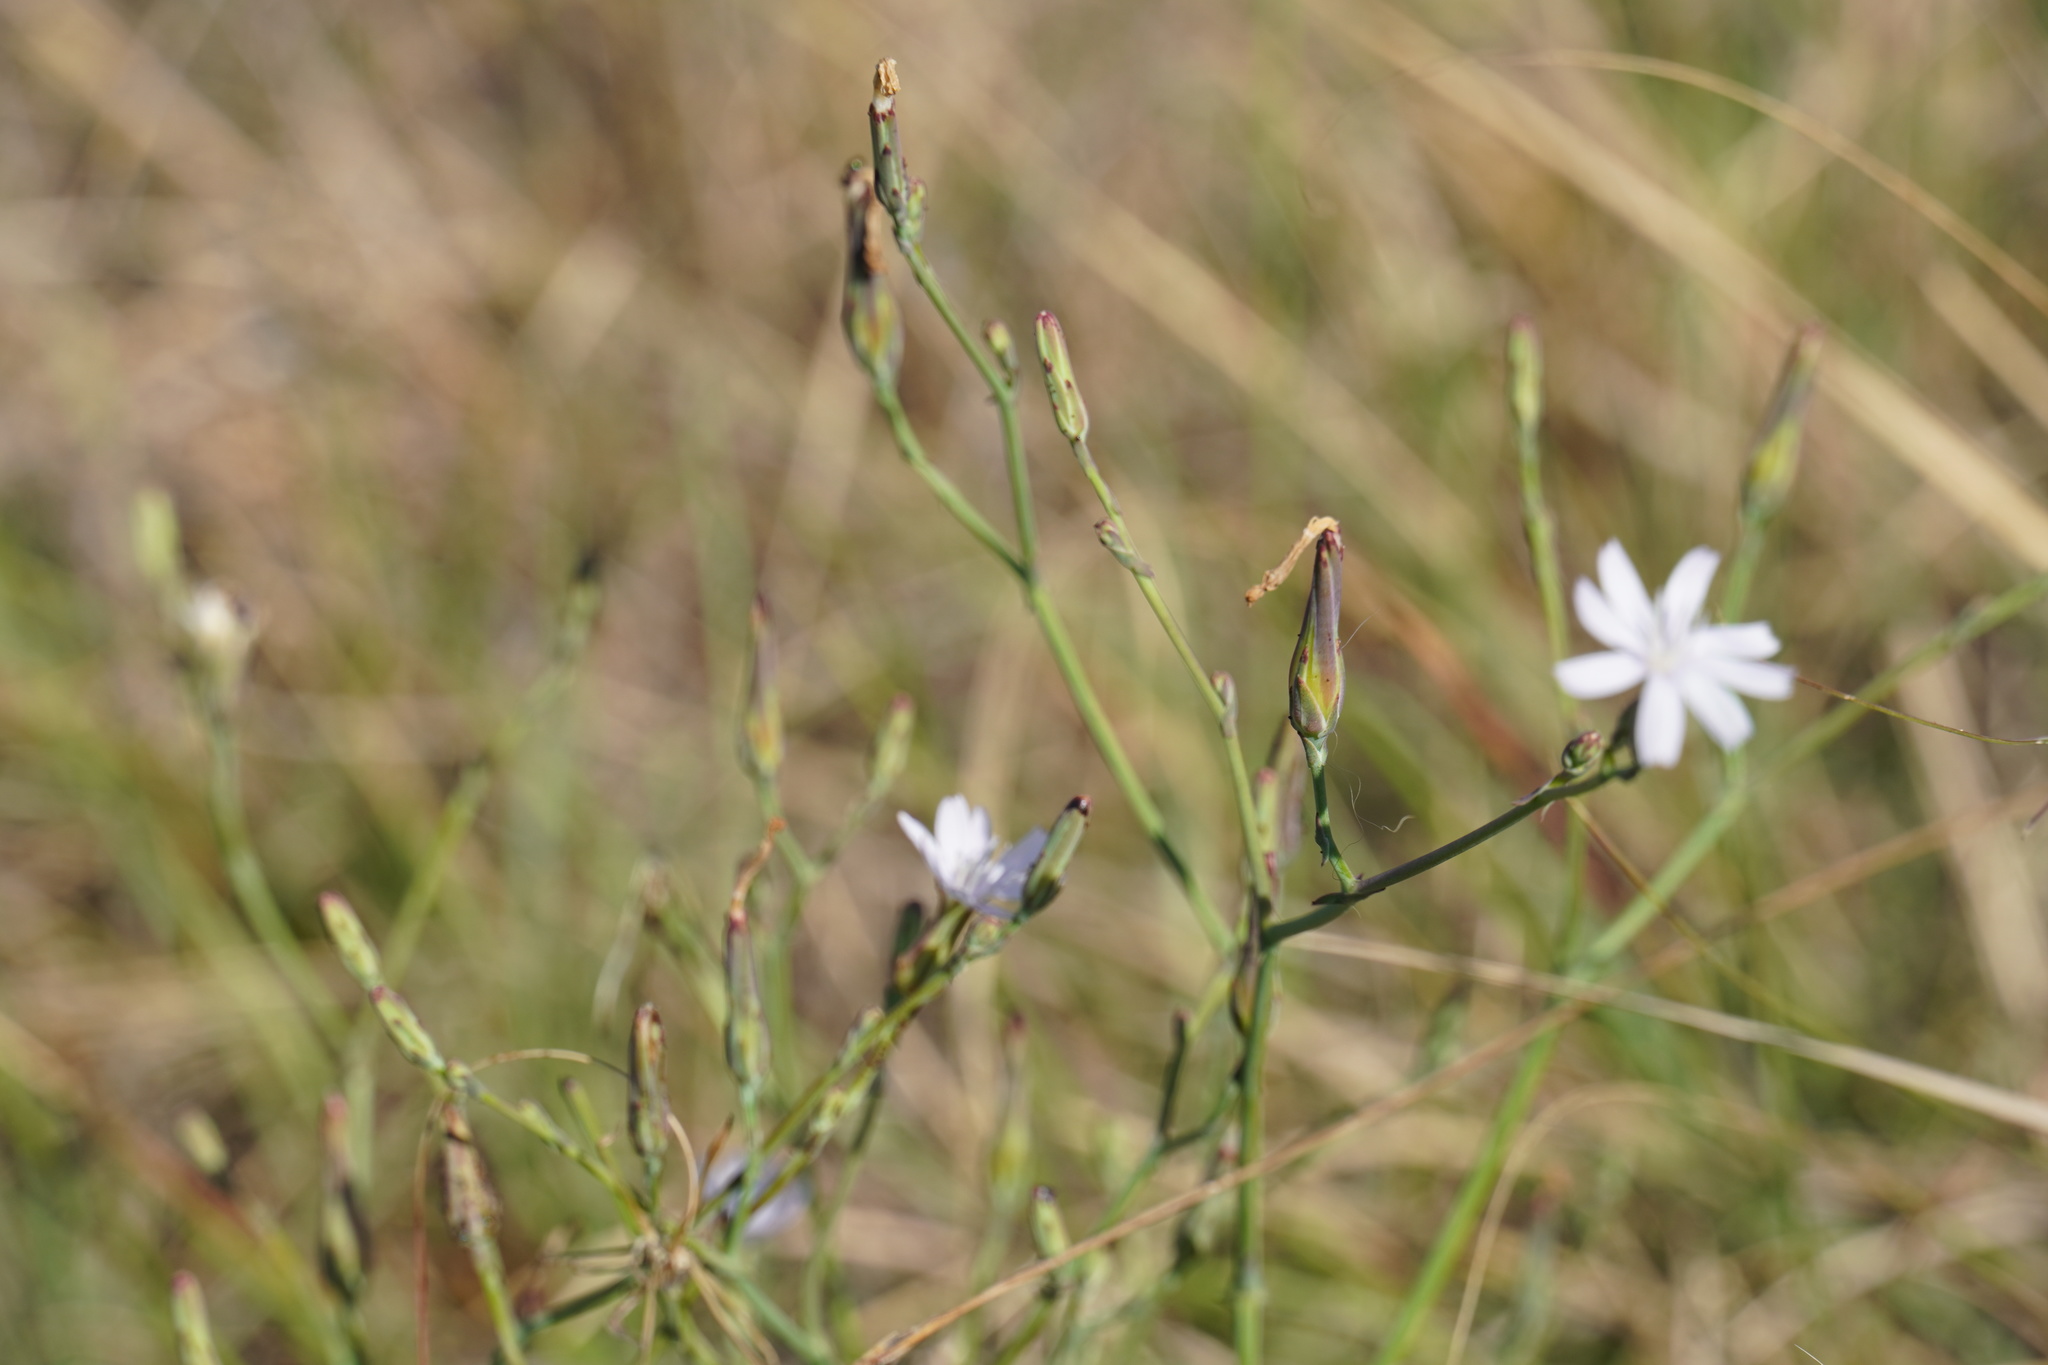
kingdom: Plantae
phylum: Tracheophyta
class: Magnoliopsida
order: Asterales
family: Asteraceae
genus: Lactuca
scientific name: Lactuca inermis
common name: Wild lettuce
